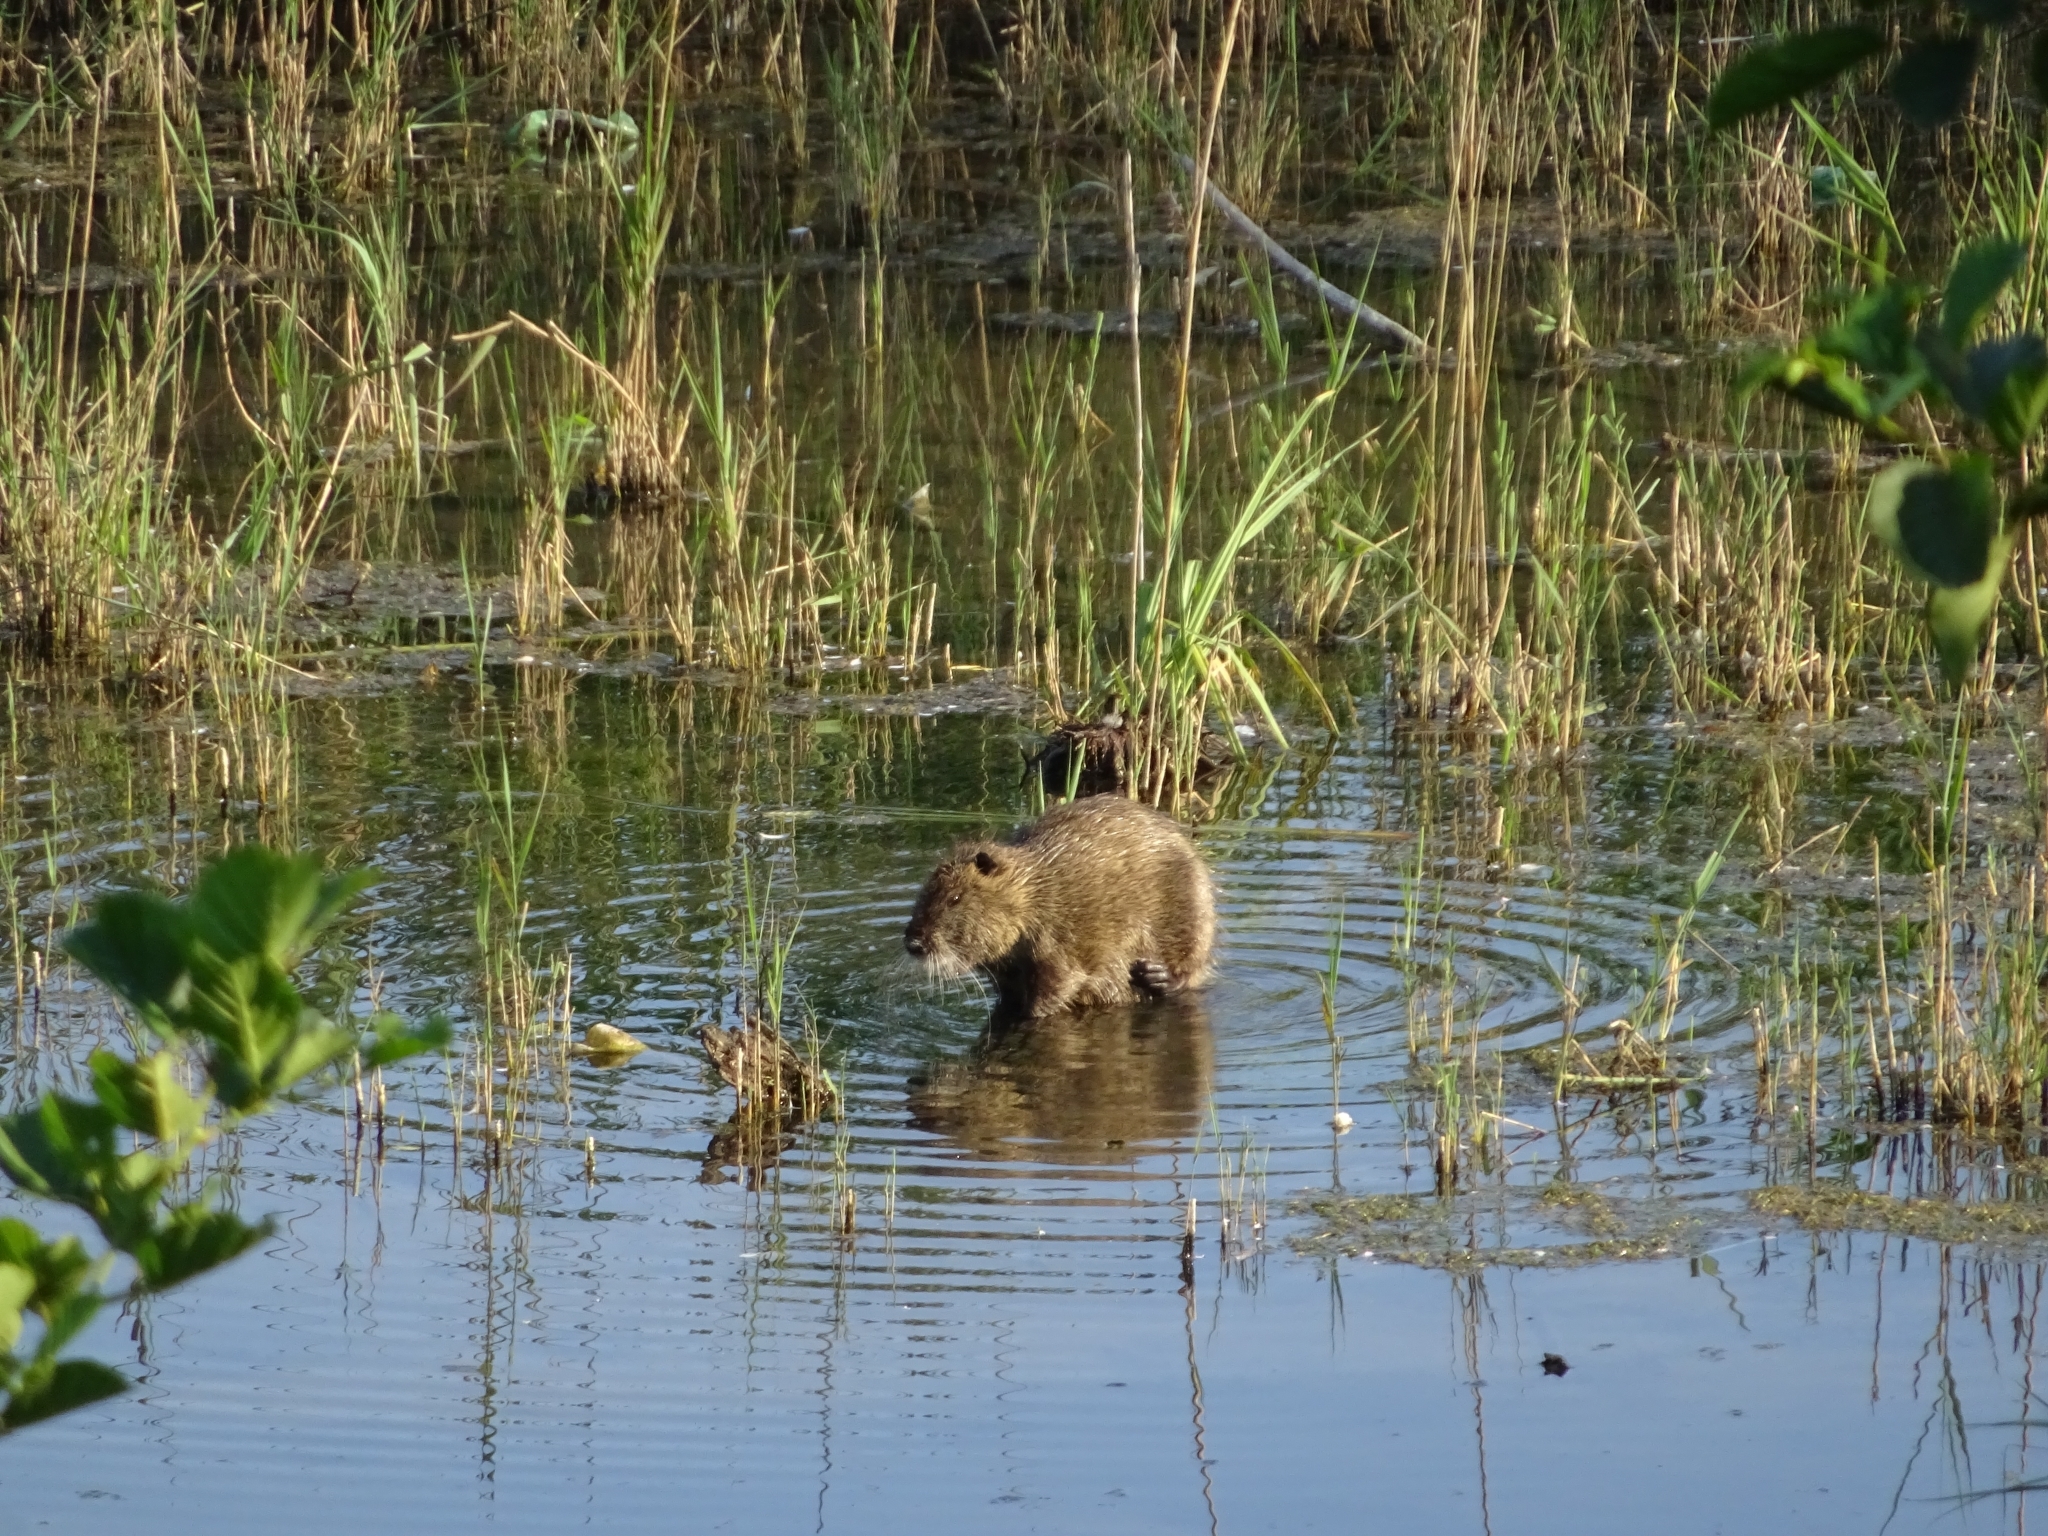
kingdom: Animalia
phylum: Chordata
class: Mammalia
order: Rodentia
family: Myocastoridae
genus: Myocastor
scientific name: Myocastor coypus
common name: Coypu
